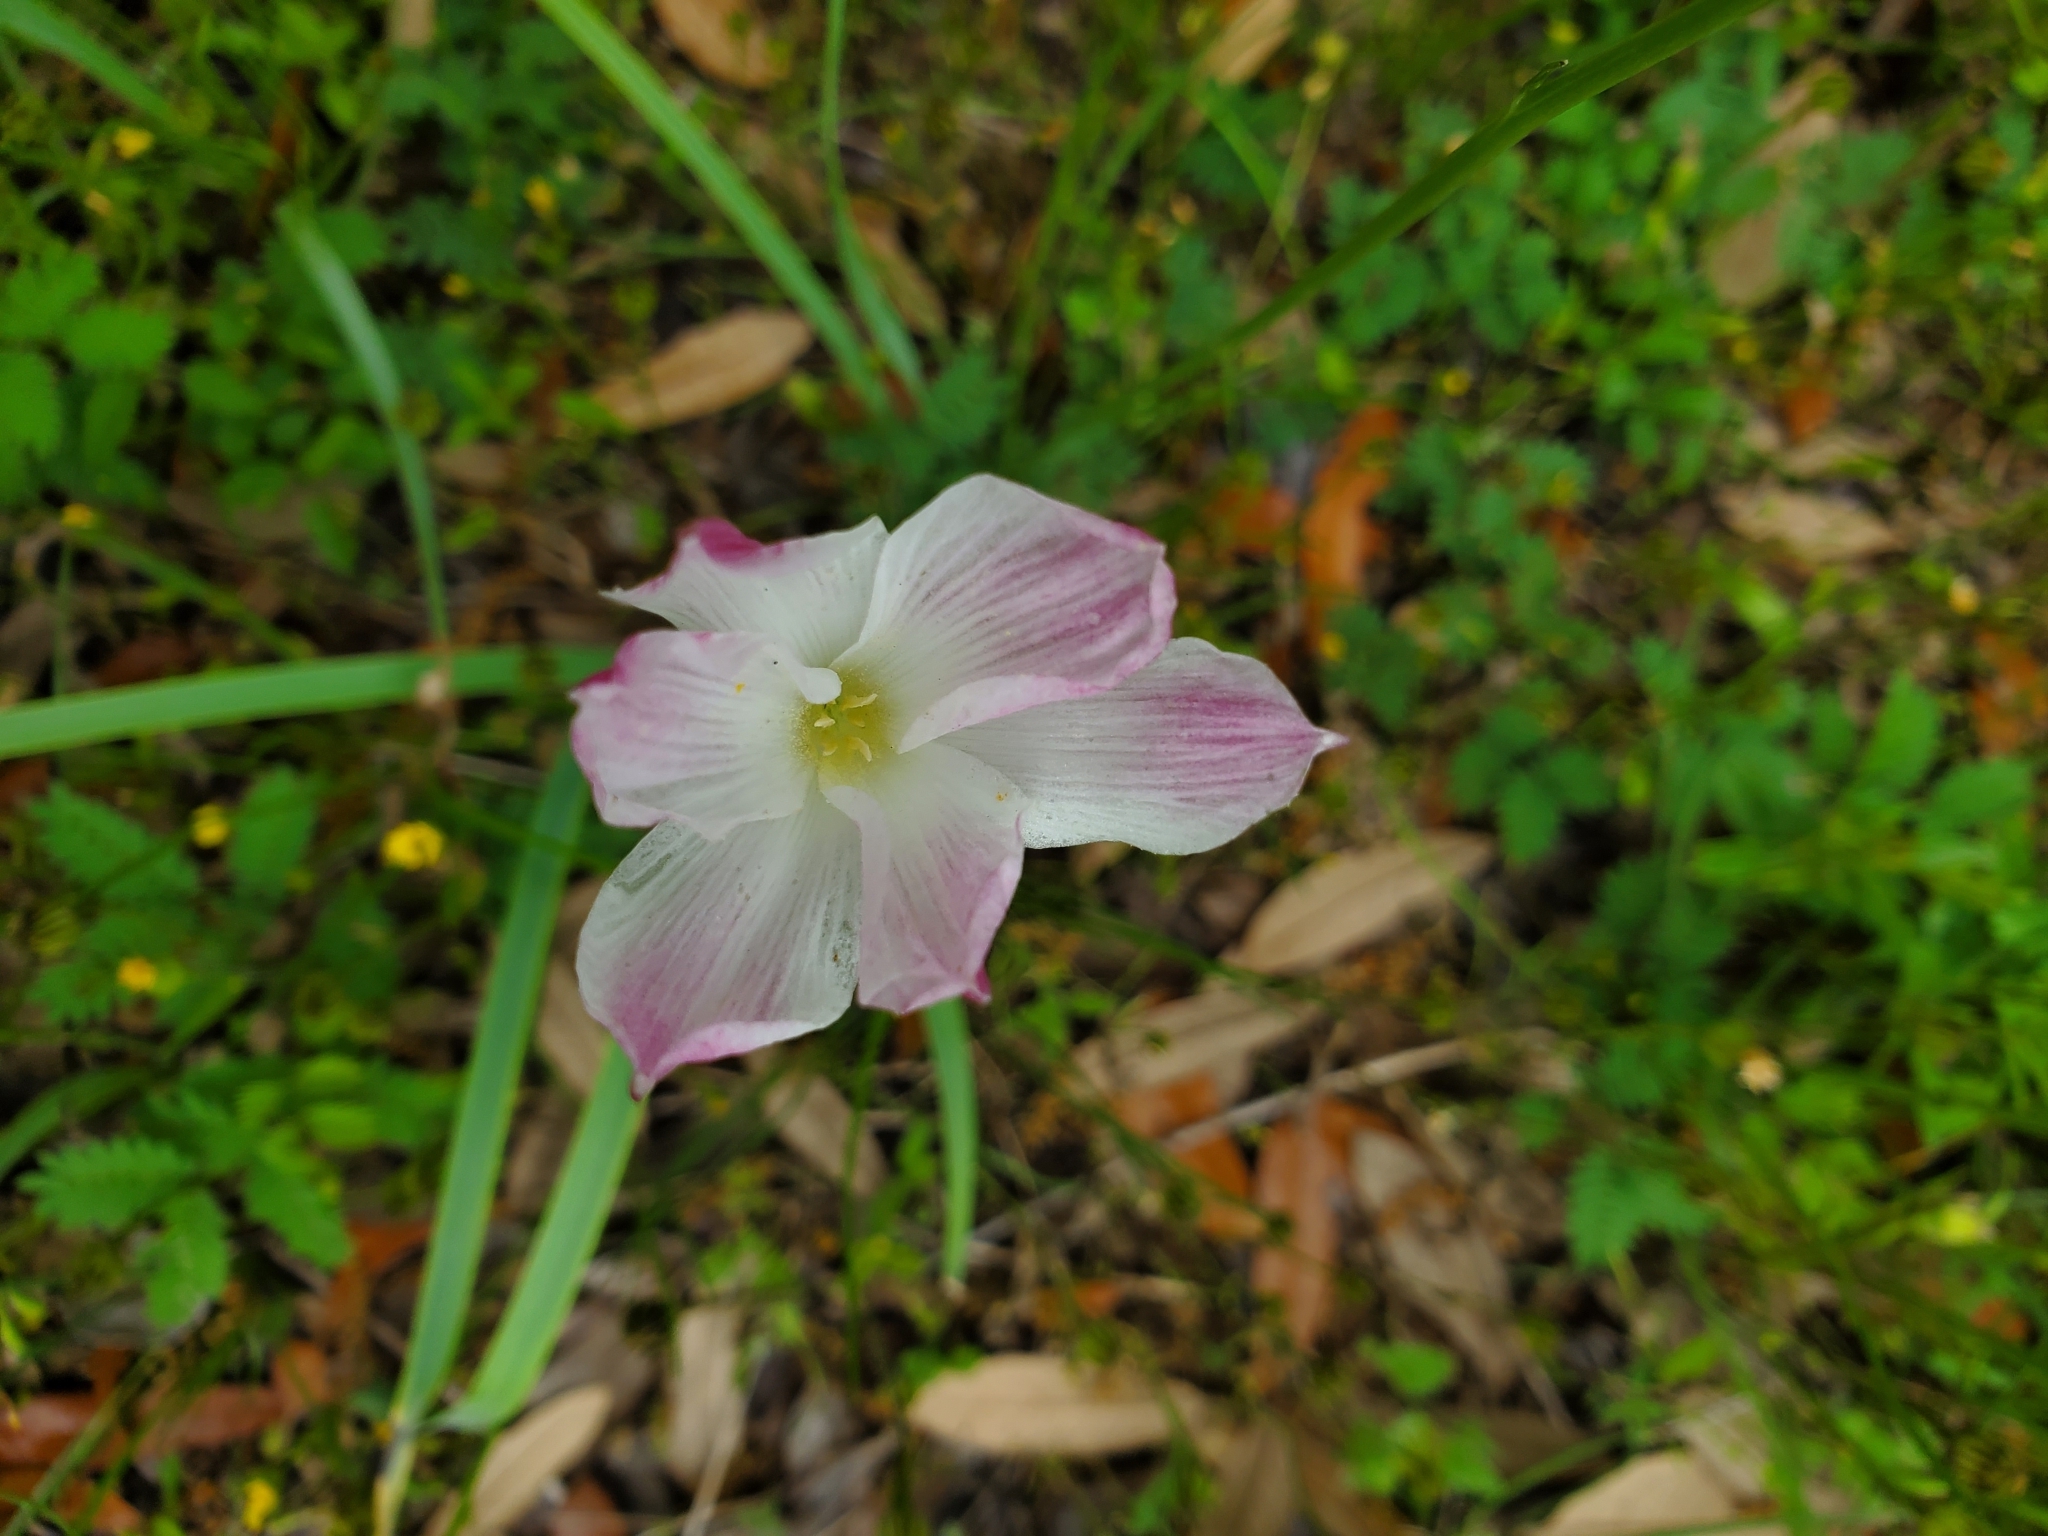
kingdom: Plantae
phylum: Tracheophyta
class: Liliopsida
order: Asparagales
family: Amaryllidaceae
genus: Zephyranthes
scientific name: Zephyranthes drummondii
